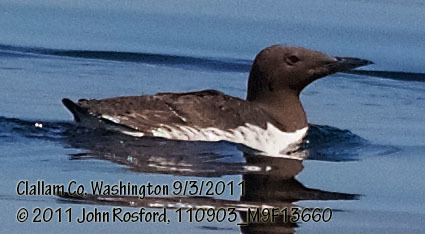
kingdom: Animalia
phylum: Chordata
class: Aves
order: Charadriiformes
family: Alcidae
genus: Uria
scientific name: Uria aalge
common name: Common murre
